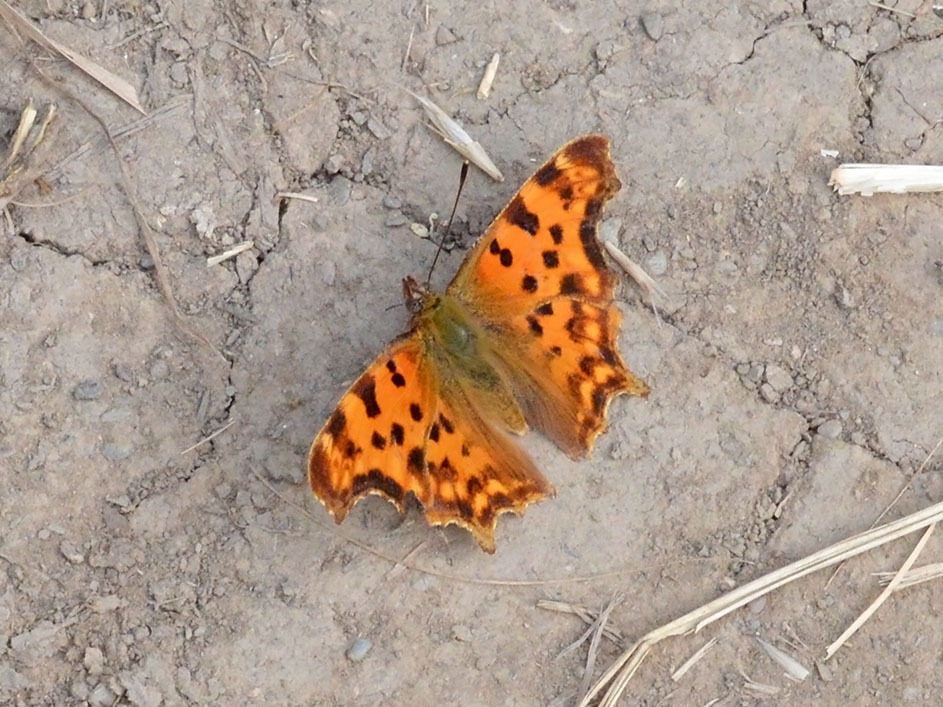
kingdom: Animalia
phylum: Arthropoda
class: Insecta
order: Lepidoptera
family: Nymphalidae
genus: Polygonia
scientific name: Polygonia c-album
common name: Comma
